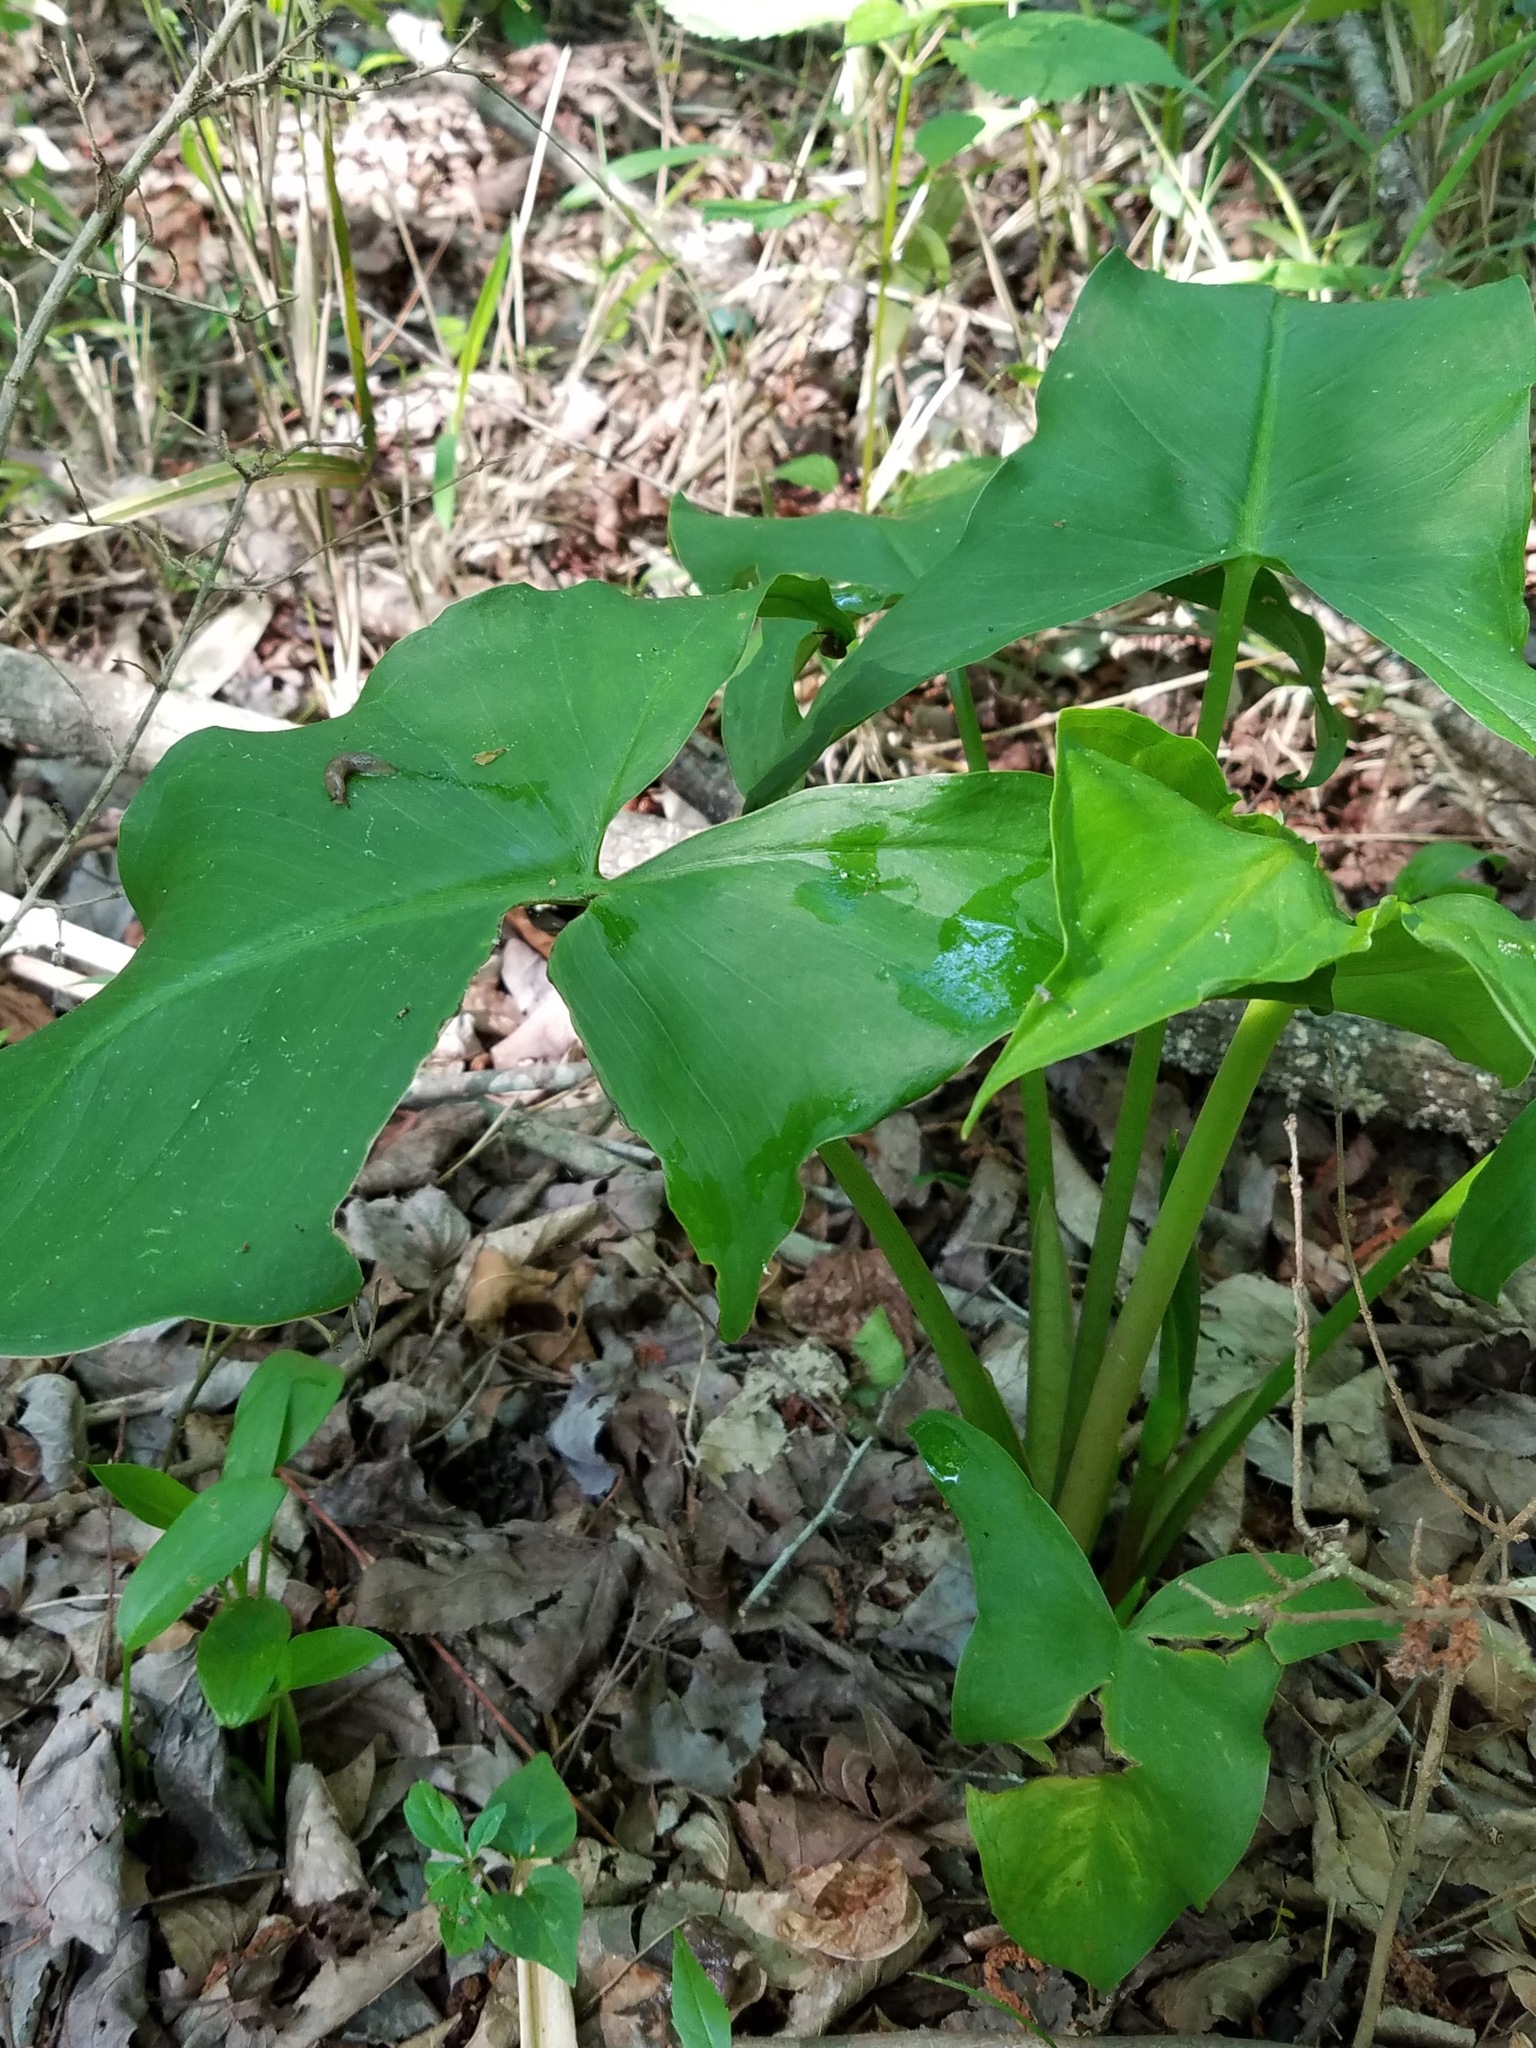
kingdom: Plantae
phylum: Tracheophyta
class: Liliopsida
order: Alismatales
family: Araceae
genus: Peltandra
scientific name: Peltandra virginica
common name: Arrow arum
